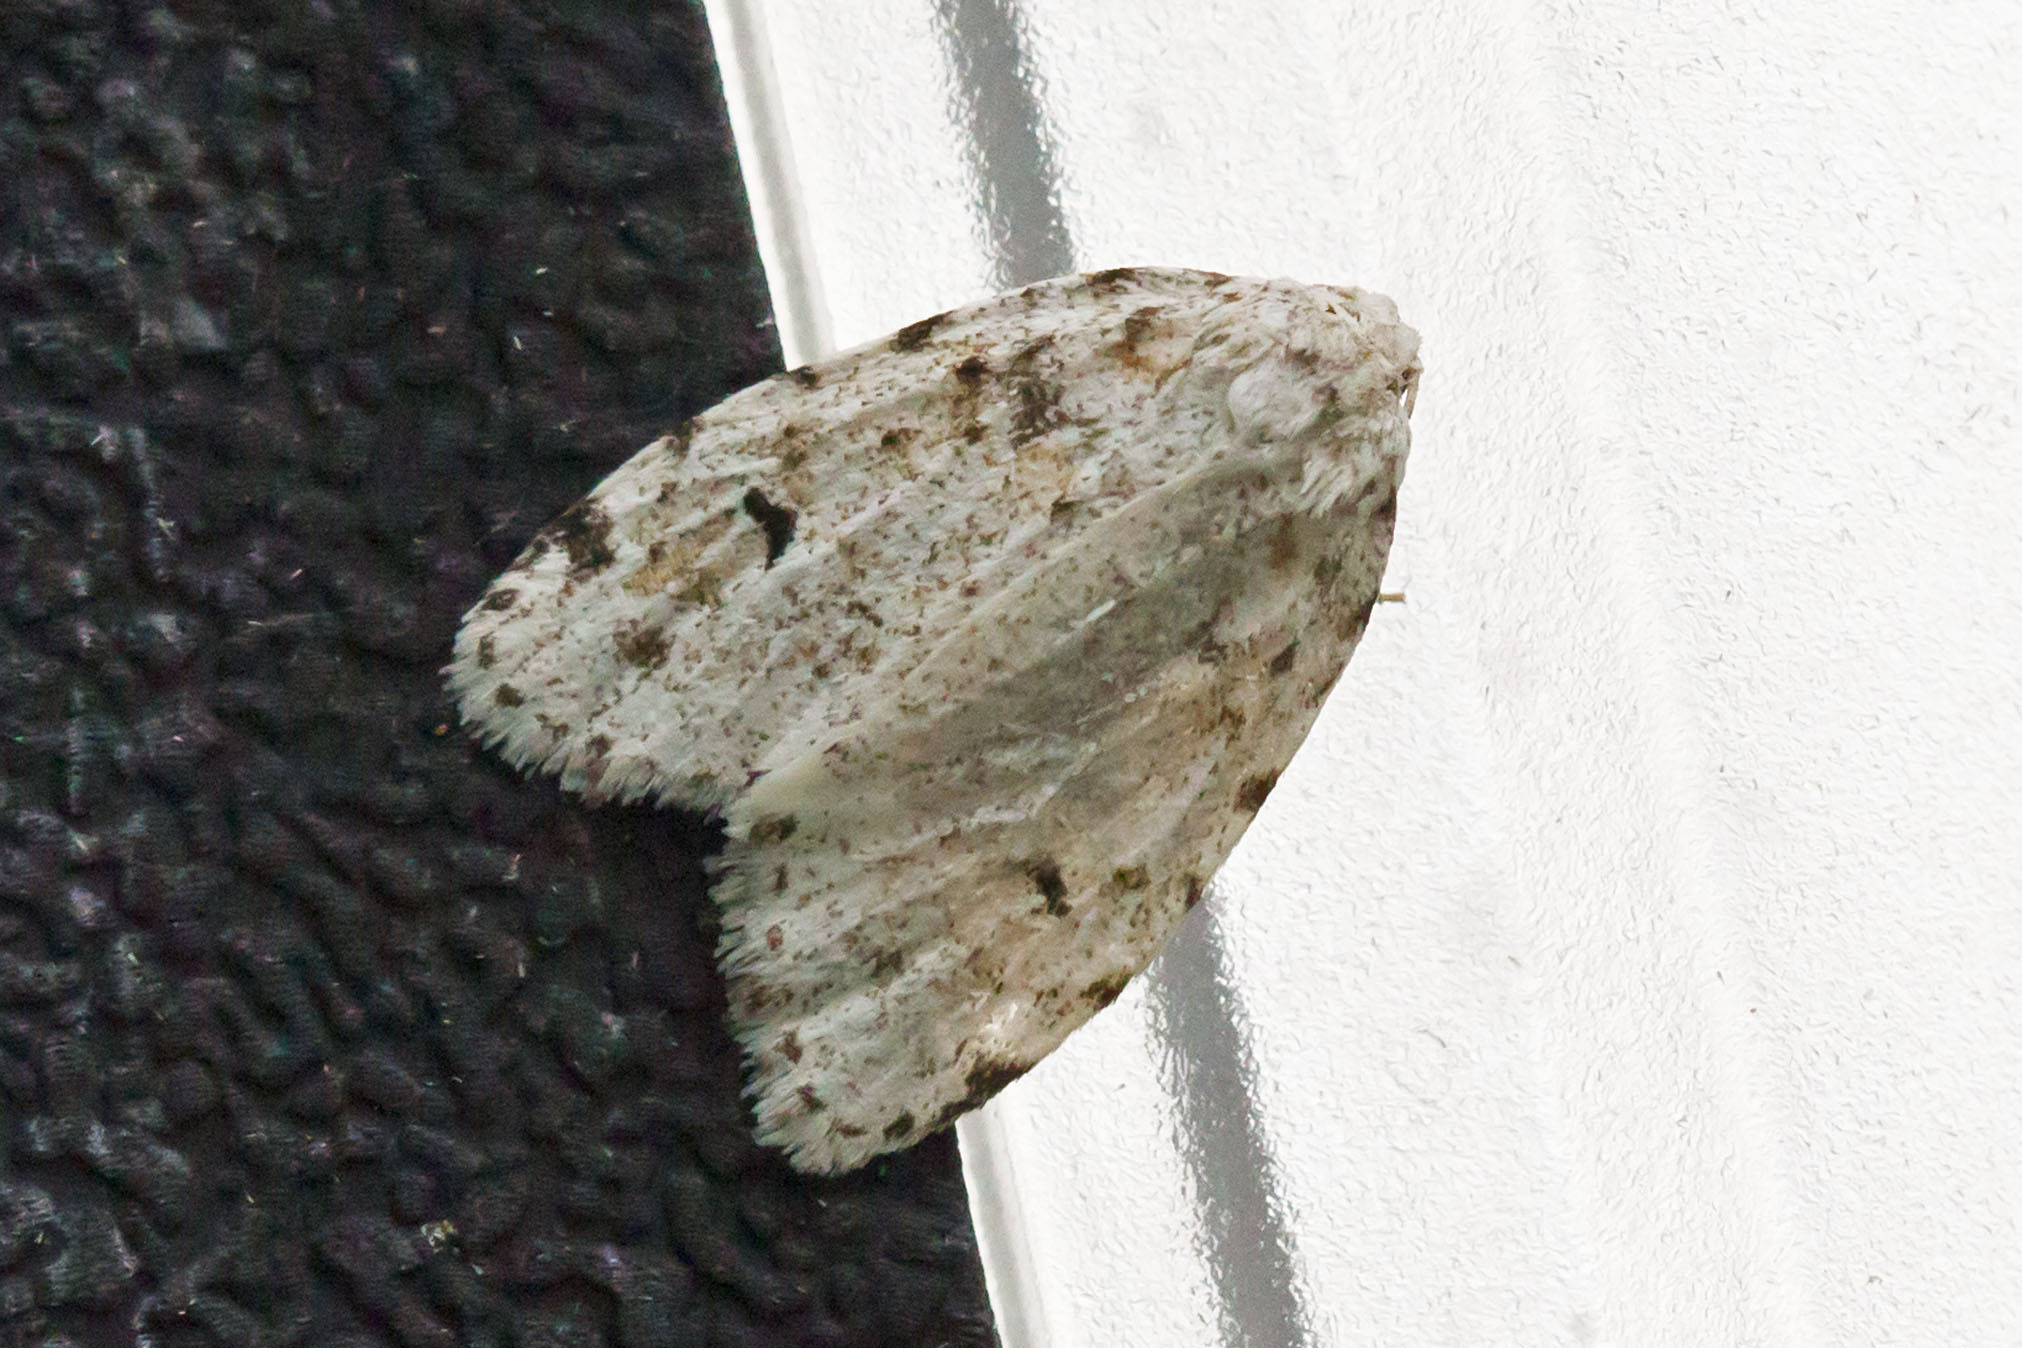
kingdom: Animalia
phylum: Arthropoda
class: Insecta
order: Lepidoptera
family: Erebidae
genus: Clemensia
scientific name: Clemensia albata
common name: Little white lichen moth
